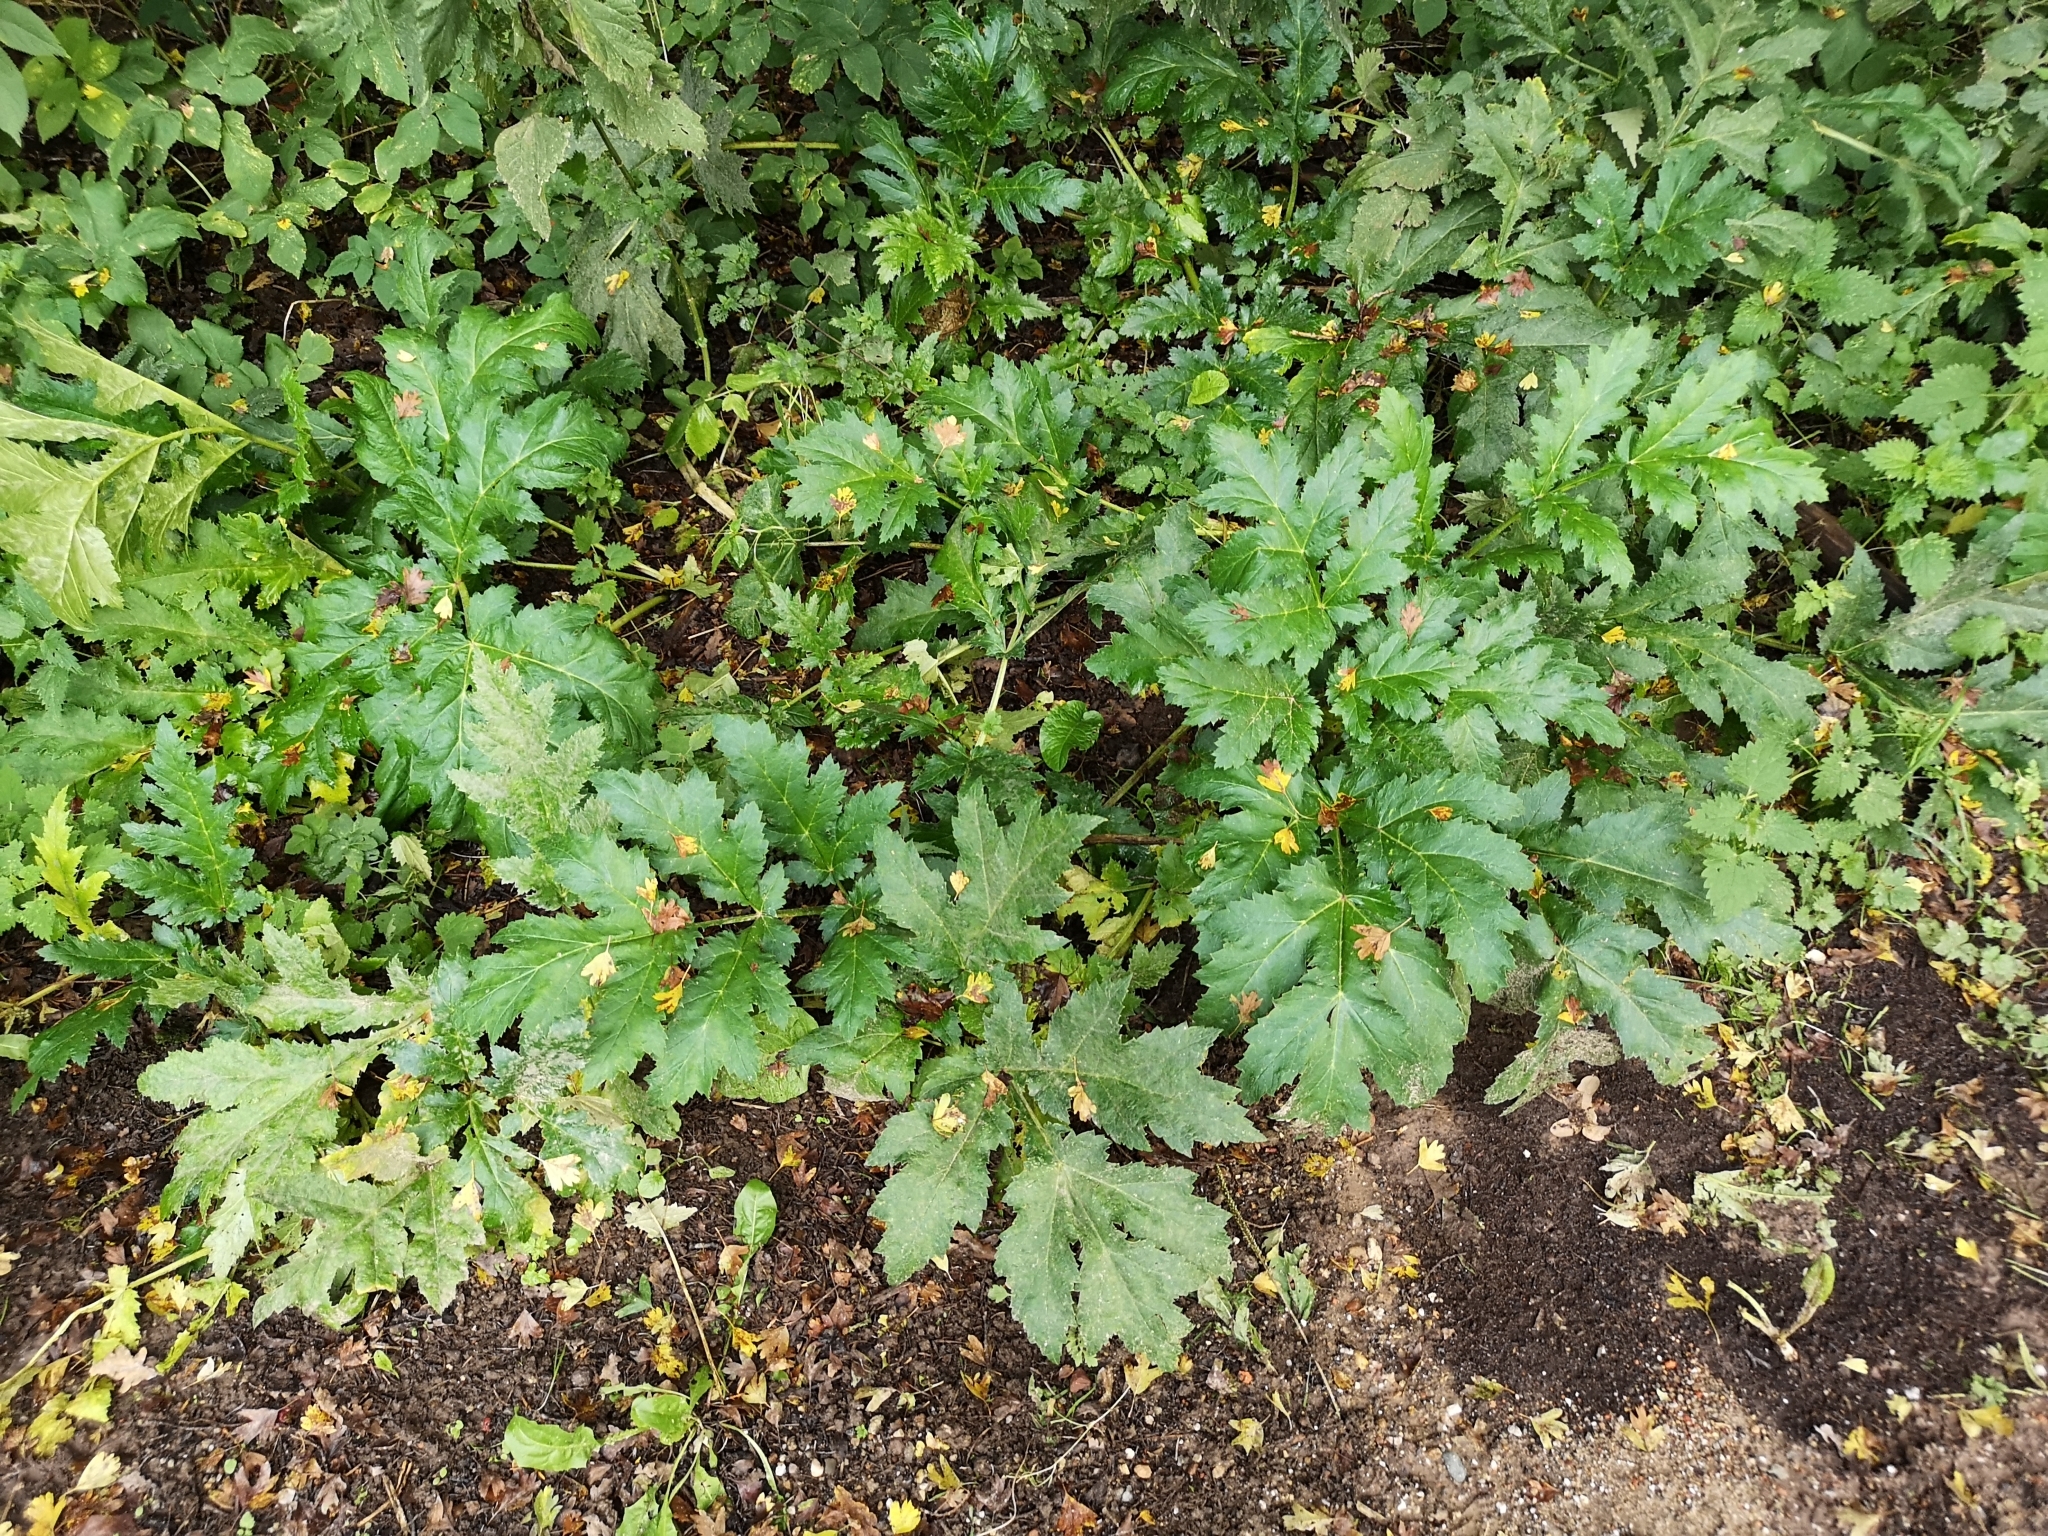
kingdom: Plantae
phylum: Tracheophyta
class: Magnoliopsida
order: Apiales
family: Apiaceae
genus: Heracleum
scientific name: Heracleum mantegazzianum
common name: Giant hogweed
